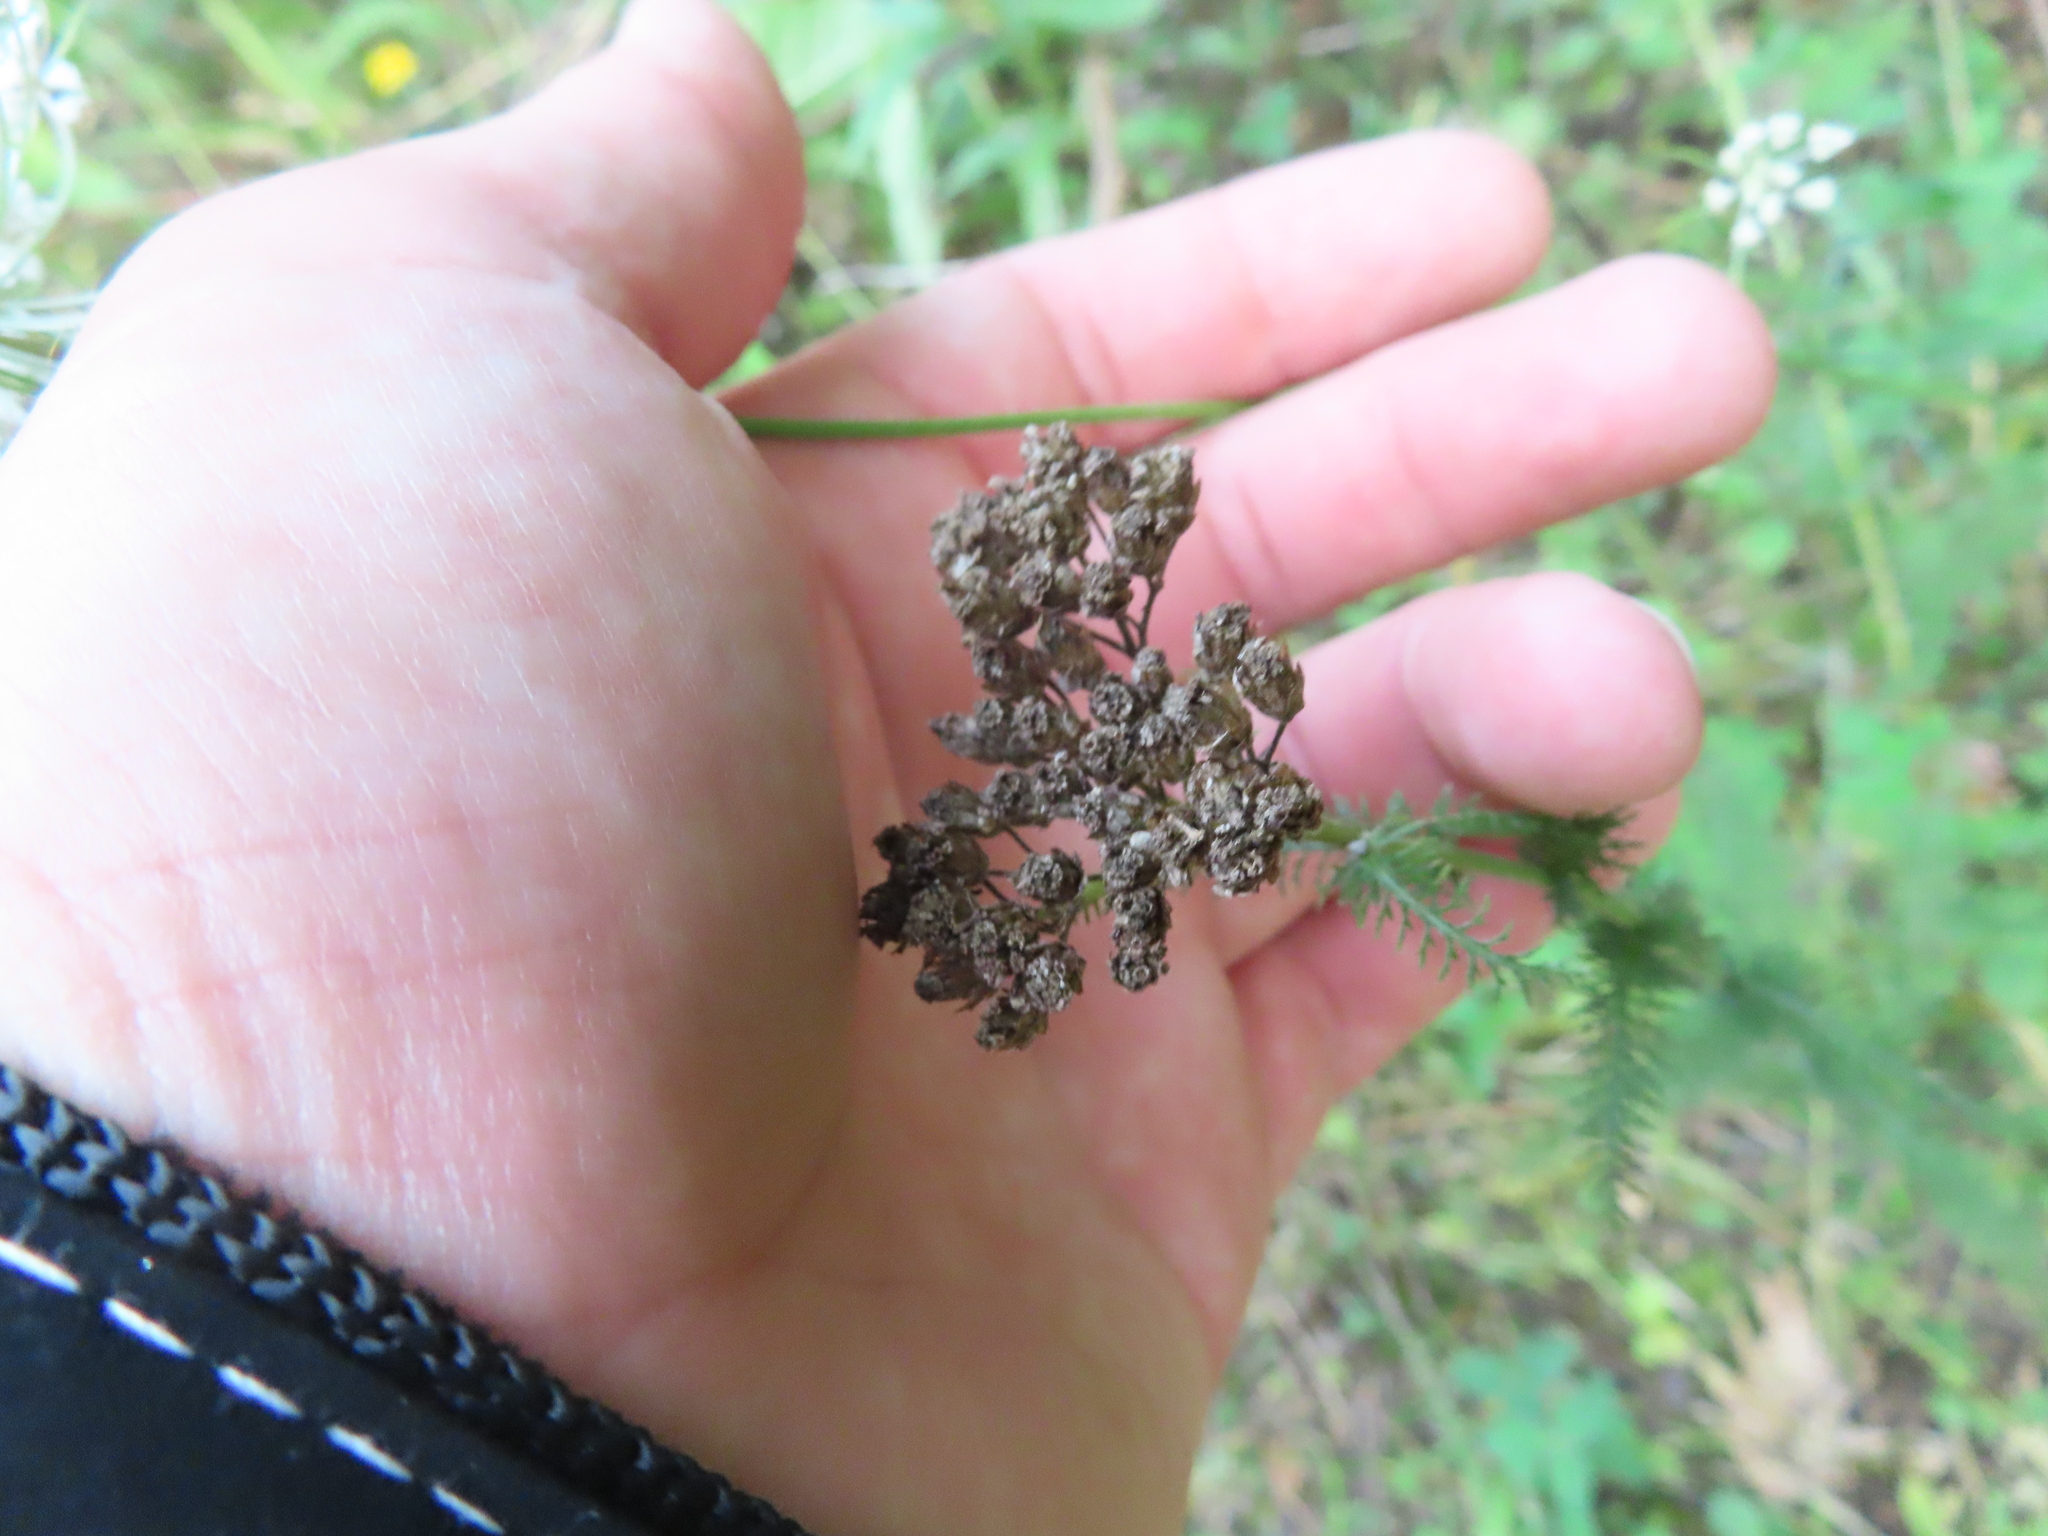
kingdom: Plantae
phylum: Tracheophyta
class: Magnoliopsida
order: Asterales
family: Asteraceae
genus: Achillea
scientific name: Achillea millefolium
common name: Yarrow
